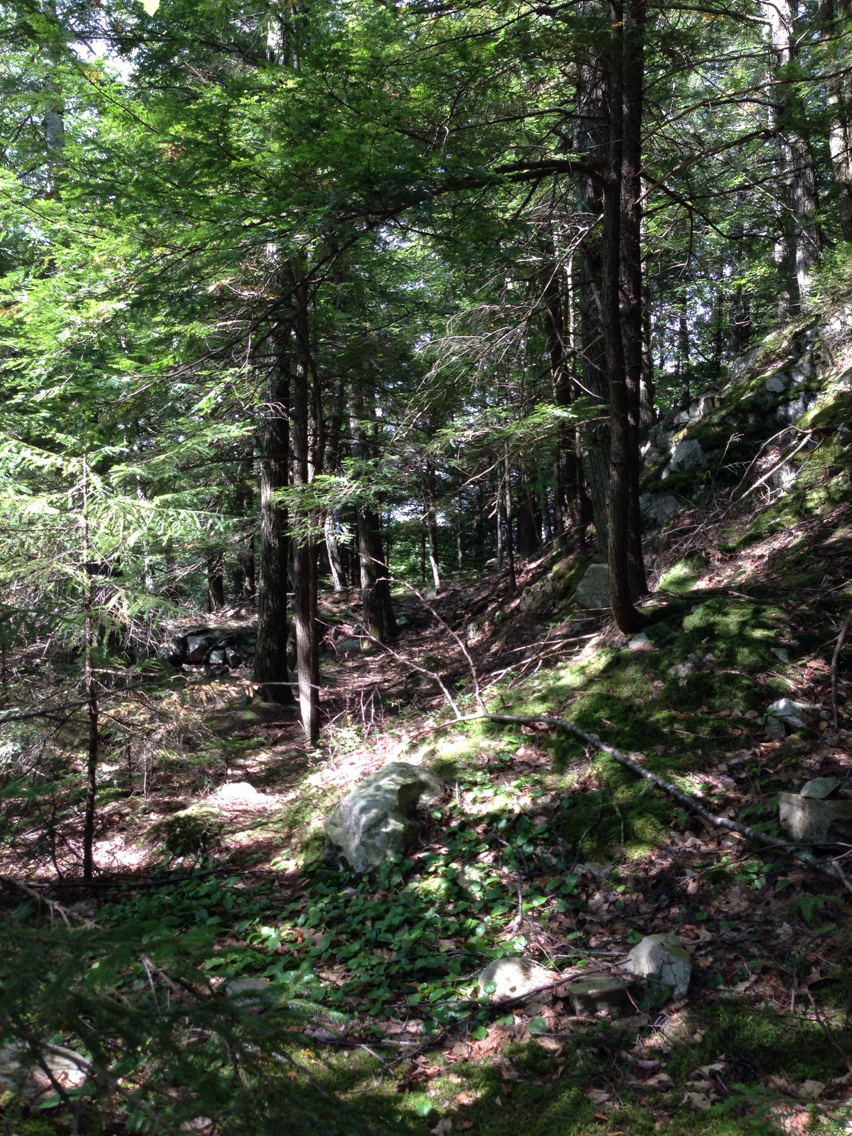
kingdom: Plantae
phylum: Tracheophyta
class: Pinopsida
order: Pinales
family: Pinaceae
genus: Tsuga
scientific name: Tsuga canadensis
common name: Eastern hemlock
